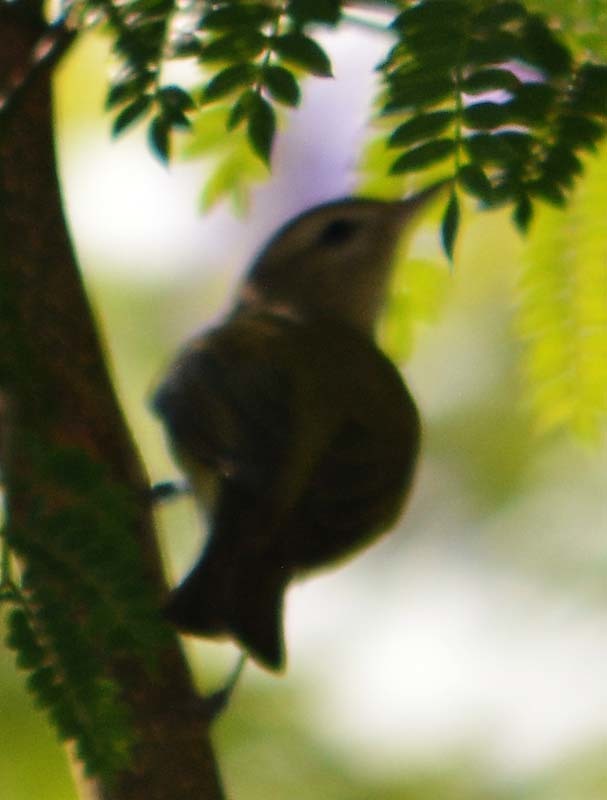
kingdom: Animalia
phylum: Chordata
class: Aves
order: Passeriformes
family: Vireonidae
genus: Vireo
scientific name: Vireo gilvus
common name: Warbling vireo
